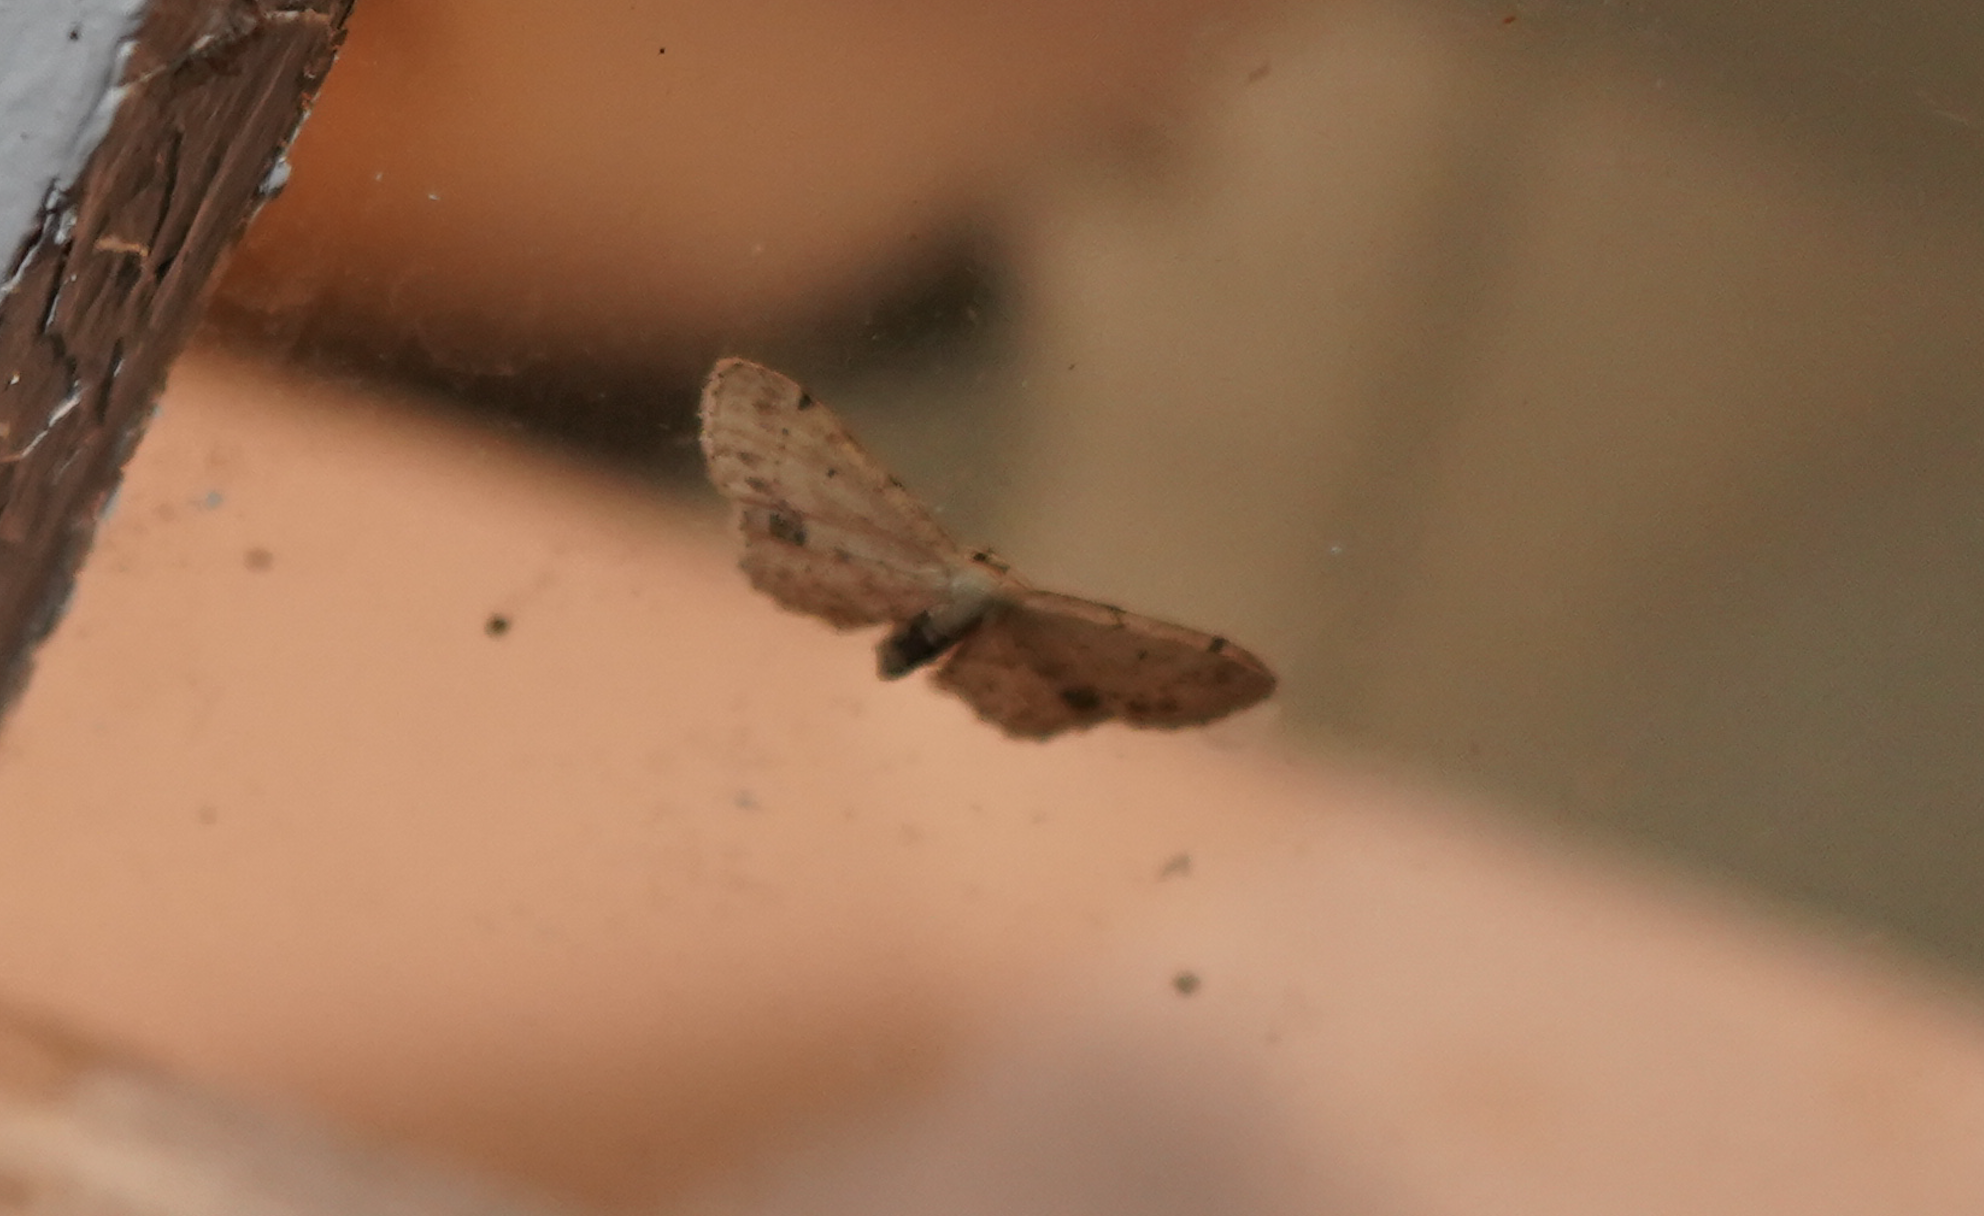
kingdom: Animalia
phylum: Arthropoda
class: Insecta
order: Lepidoptera
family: Geometridae
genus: Idaea
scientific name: Idaea dimidiata
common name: Single-dotted wave
